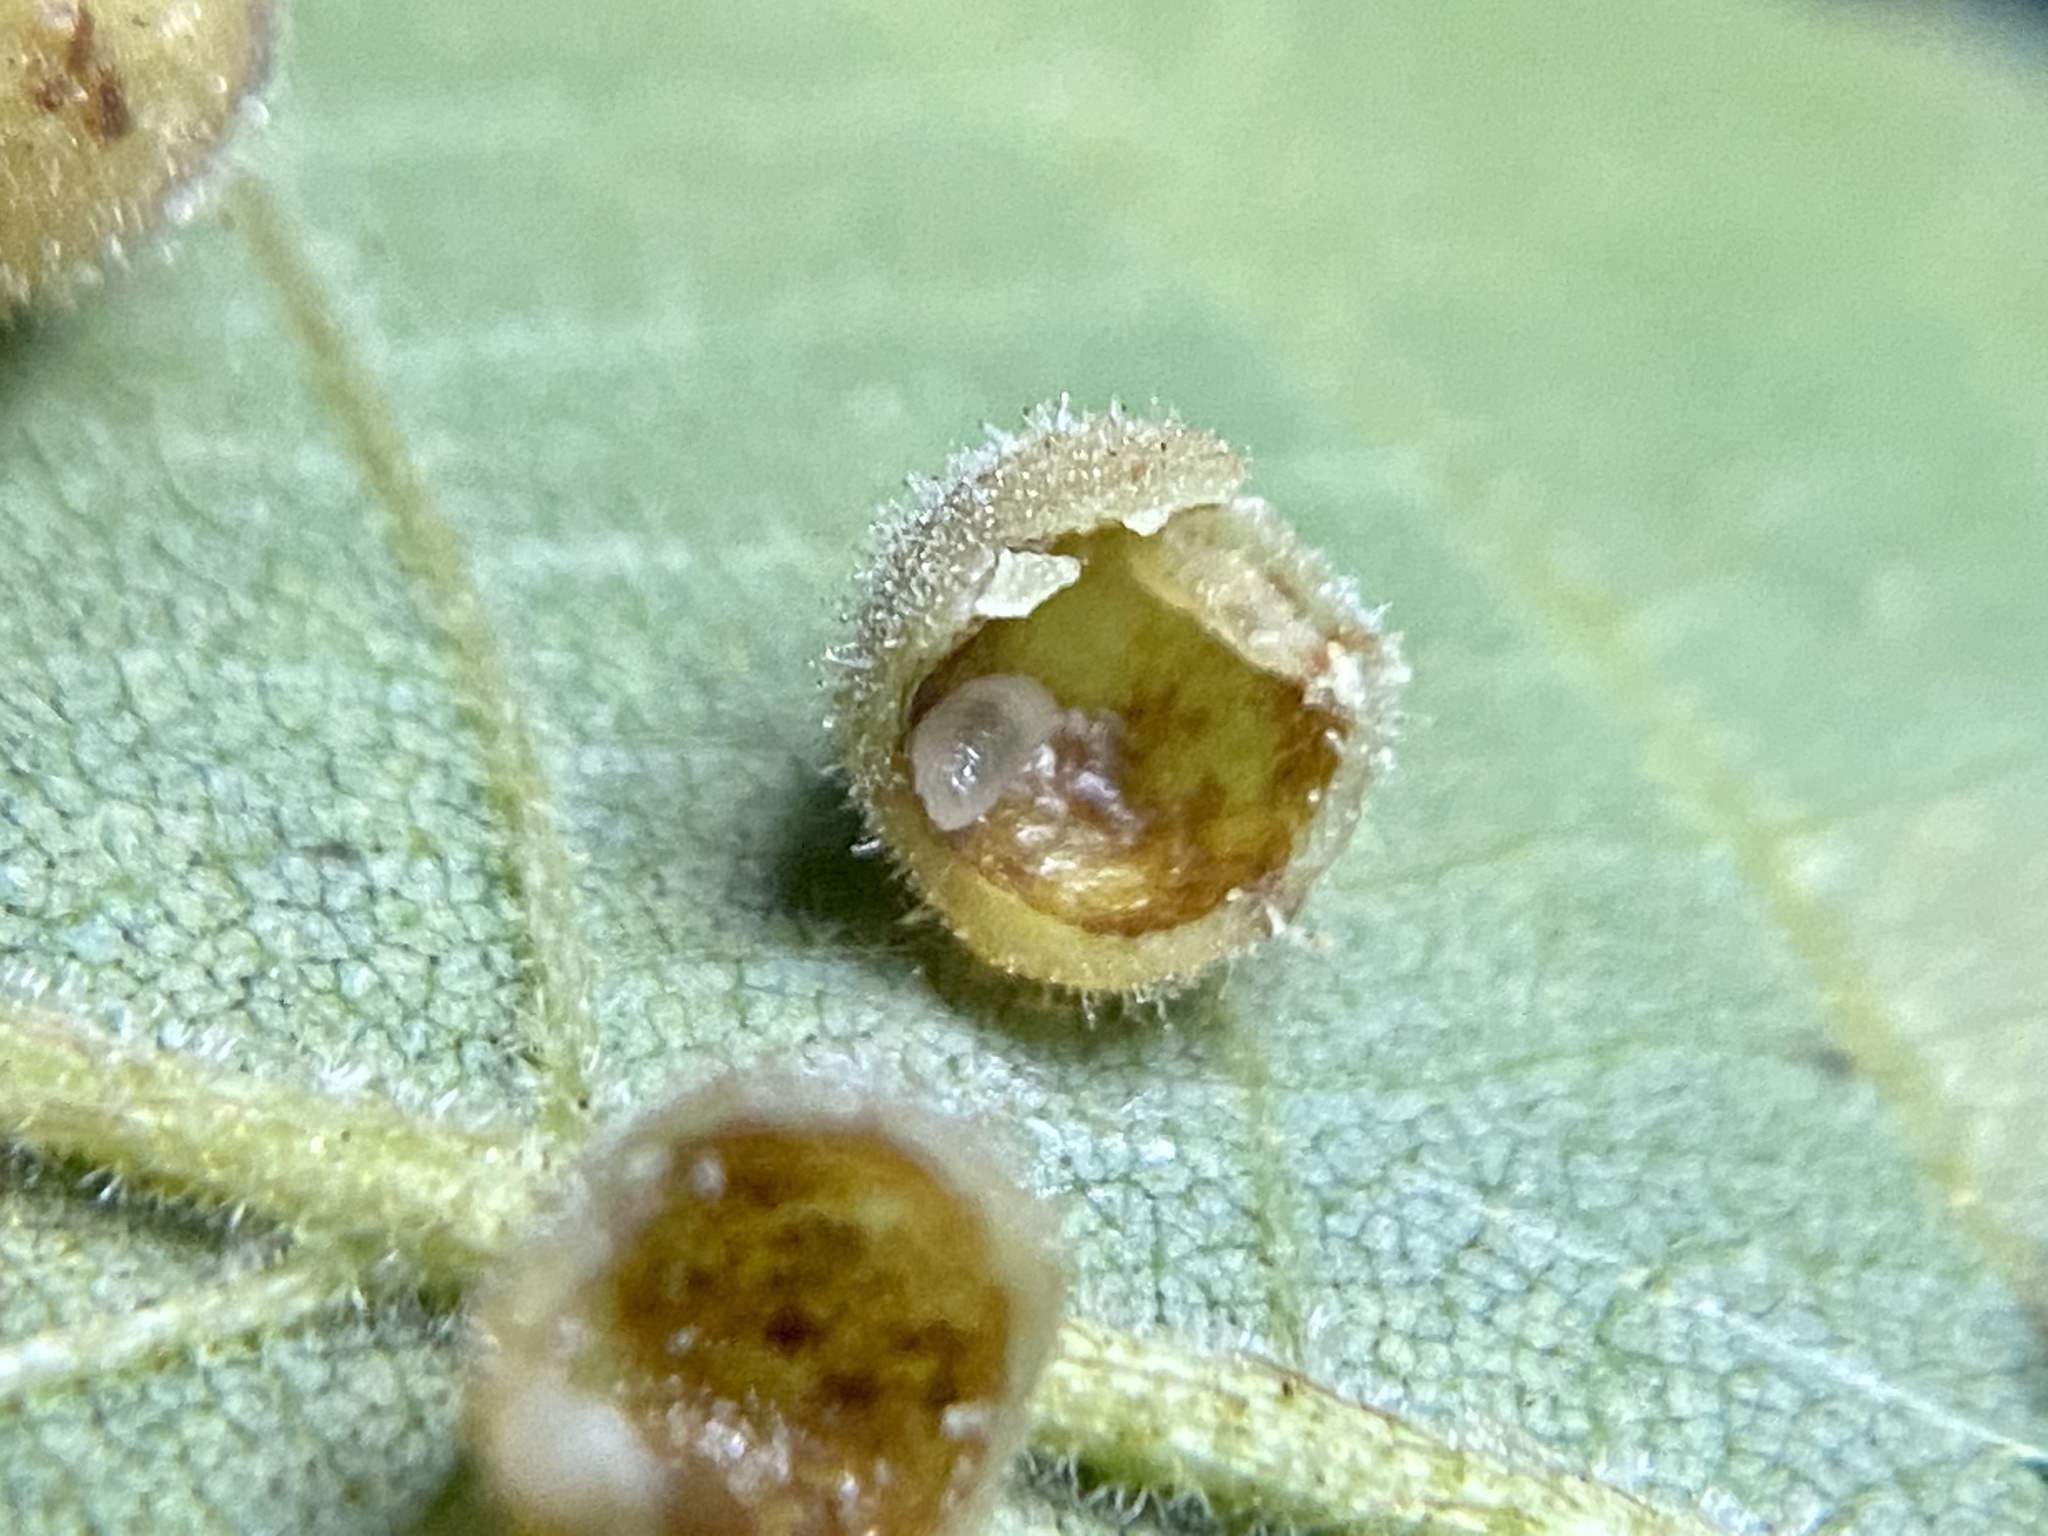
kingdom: Animalia
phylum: Arthropoda
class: Insecta
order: Diptera
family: Cecidomyiidae
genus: Caryomyia
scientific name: Caryomyia hirtidolium
